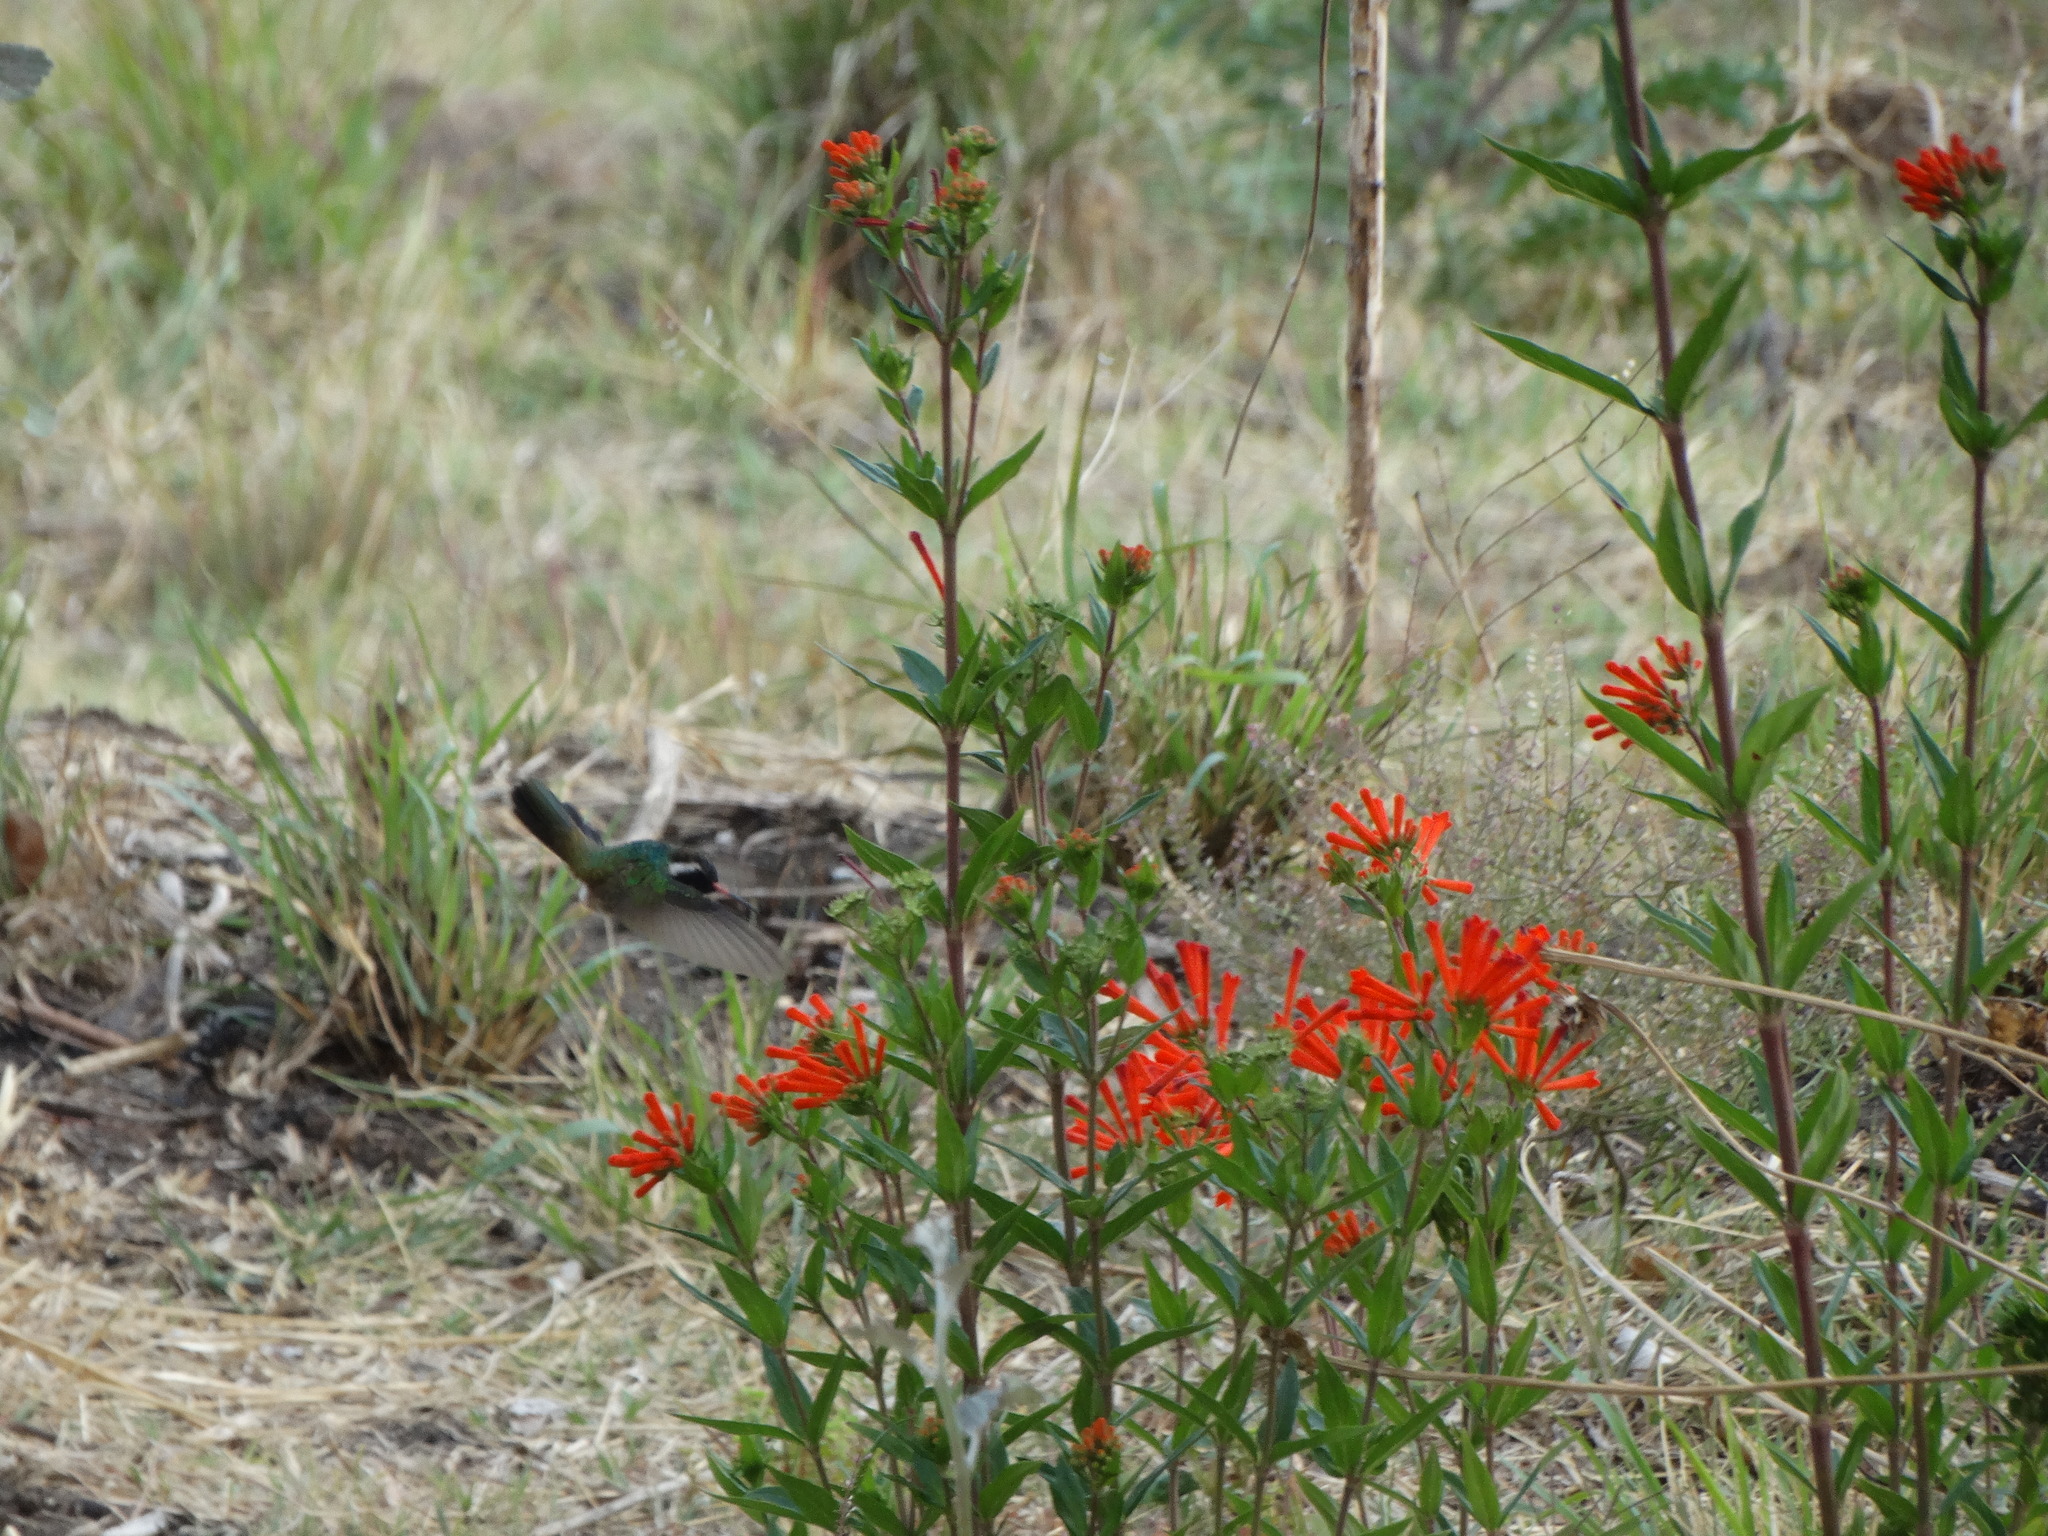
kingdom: Animalia
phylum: Chordata
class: Aves
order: Apodiformes
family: Trochilidae
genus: Basilinna
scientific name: Basilinna leucotis
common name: White-eared hummingbird
